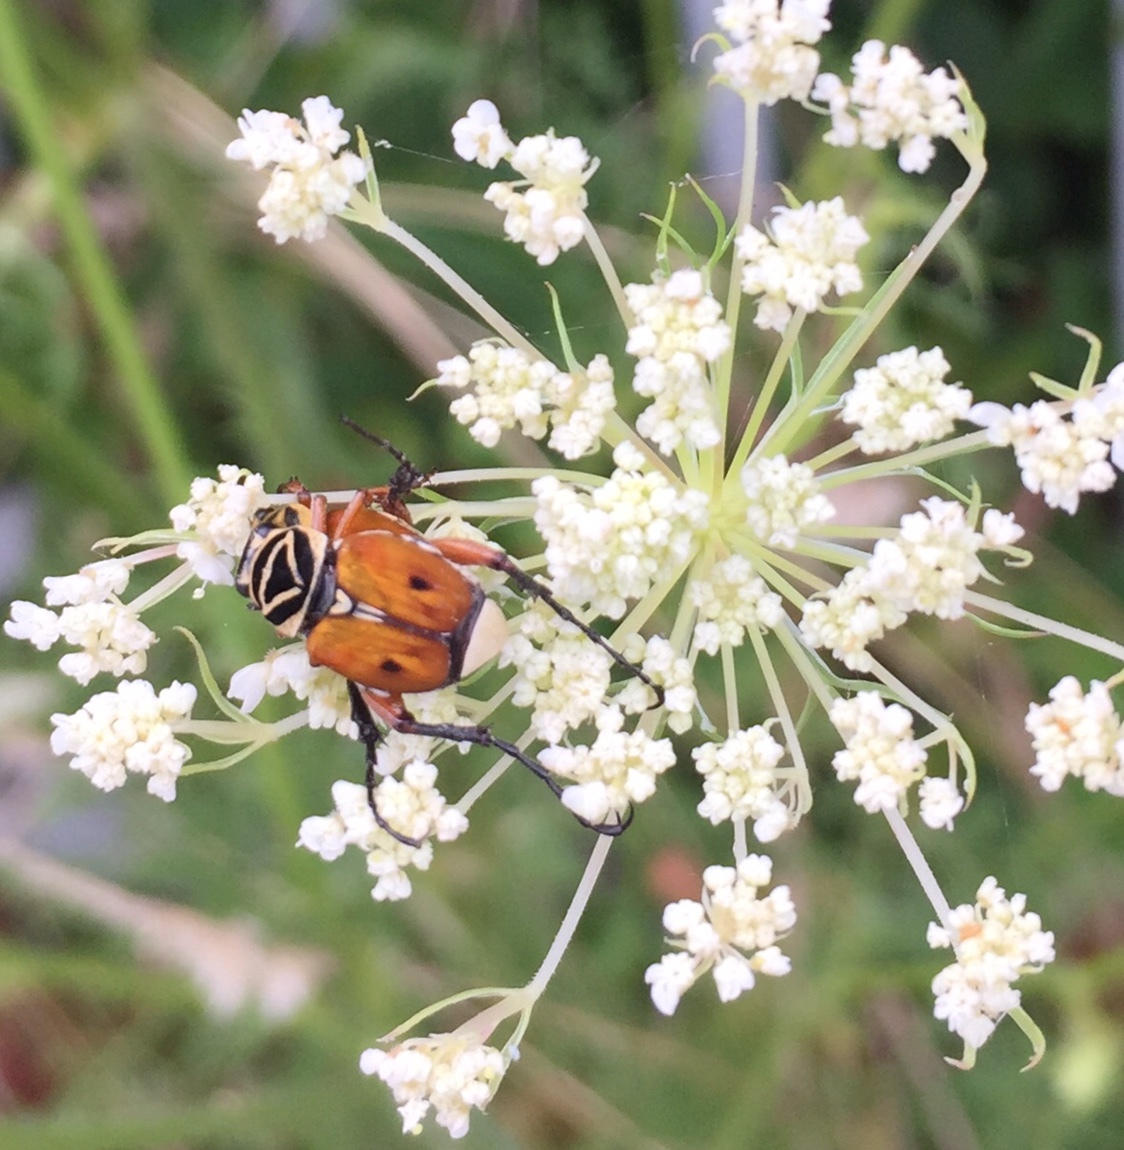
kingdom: Animalia
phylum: Arthropoda
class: Insecta
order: Coleoptera
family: Scarabaeidae
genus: Trigonopeltastes
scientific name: Trigonopeltastes delta
